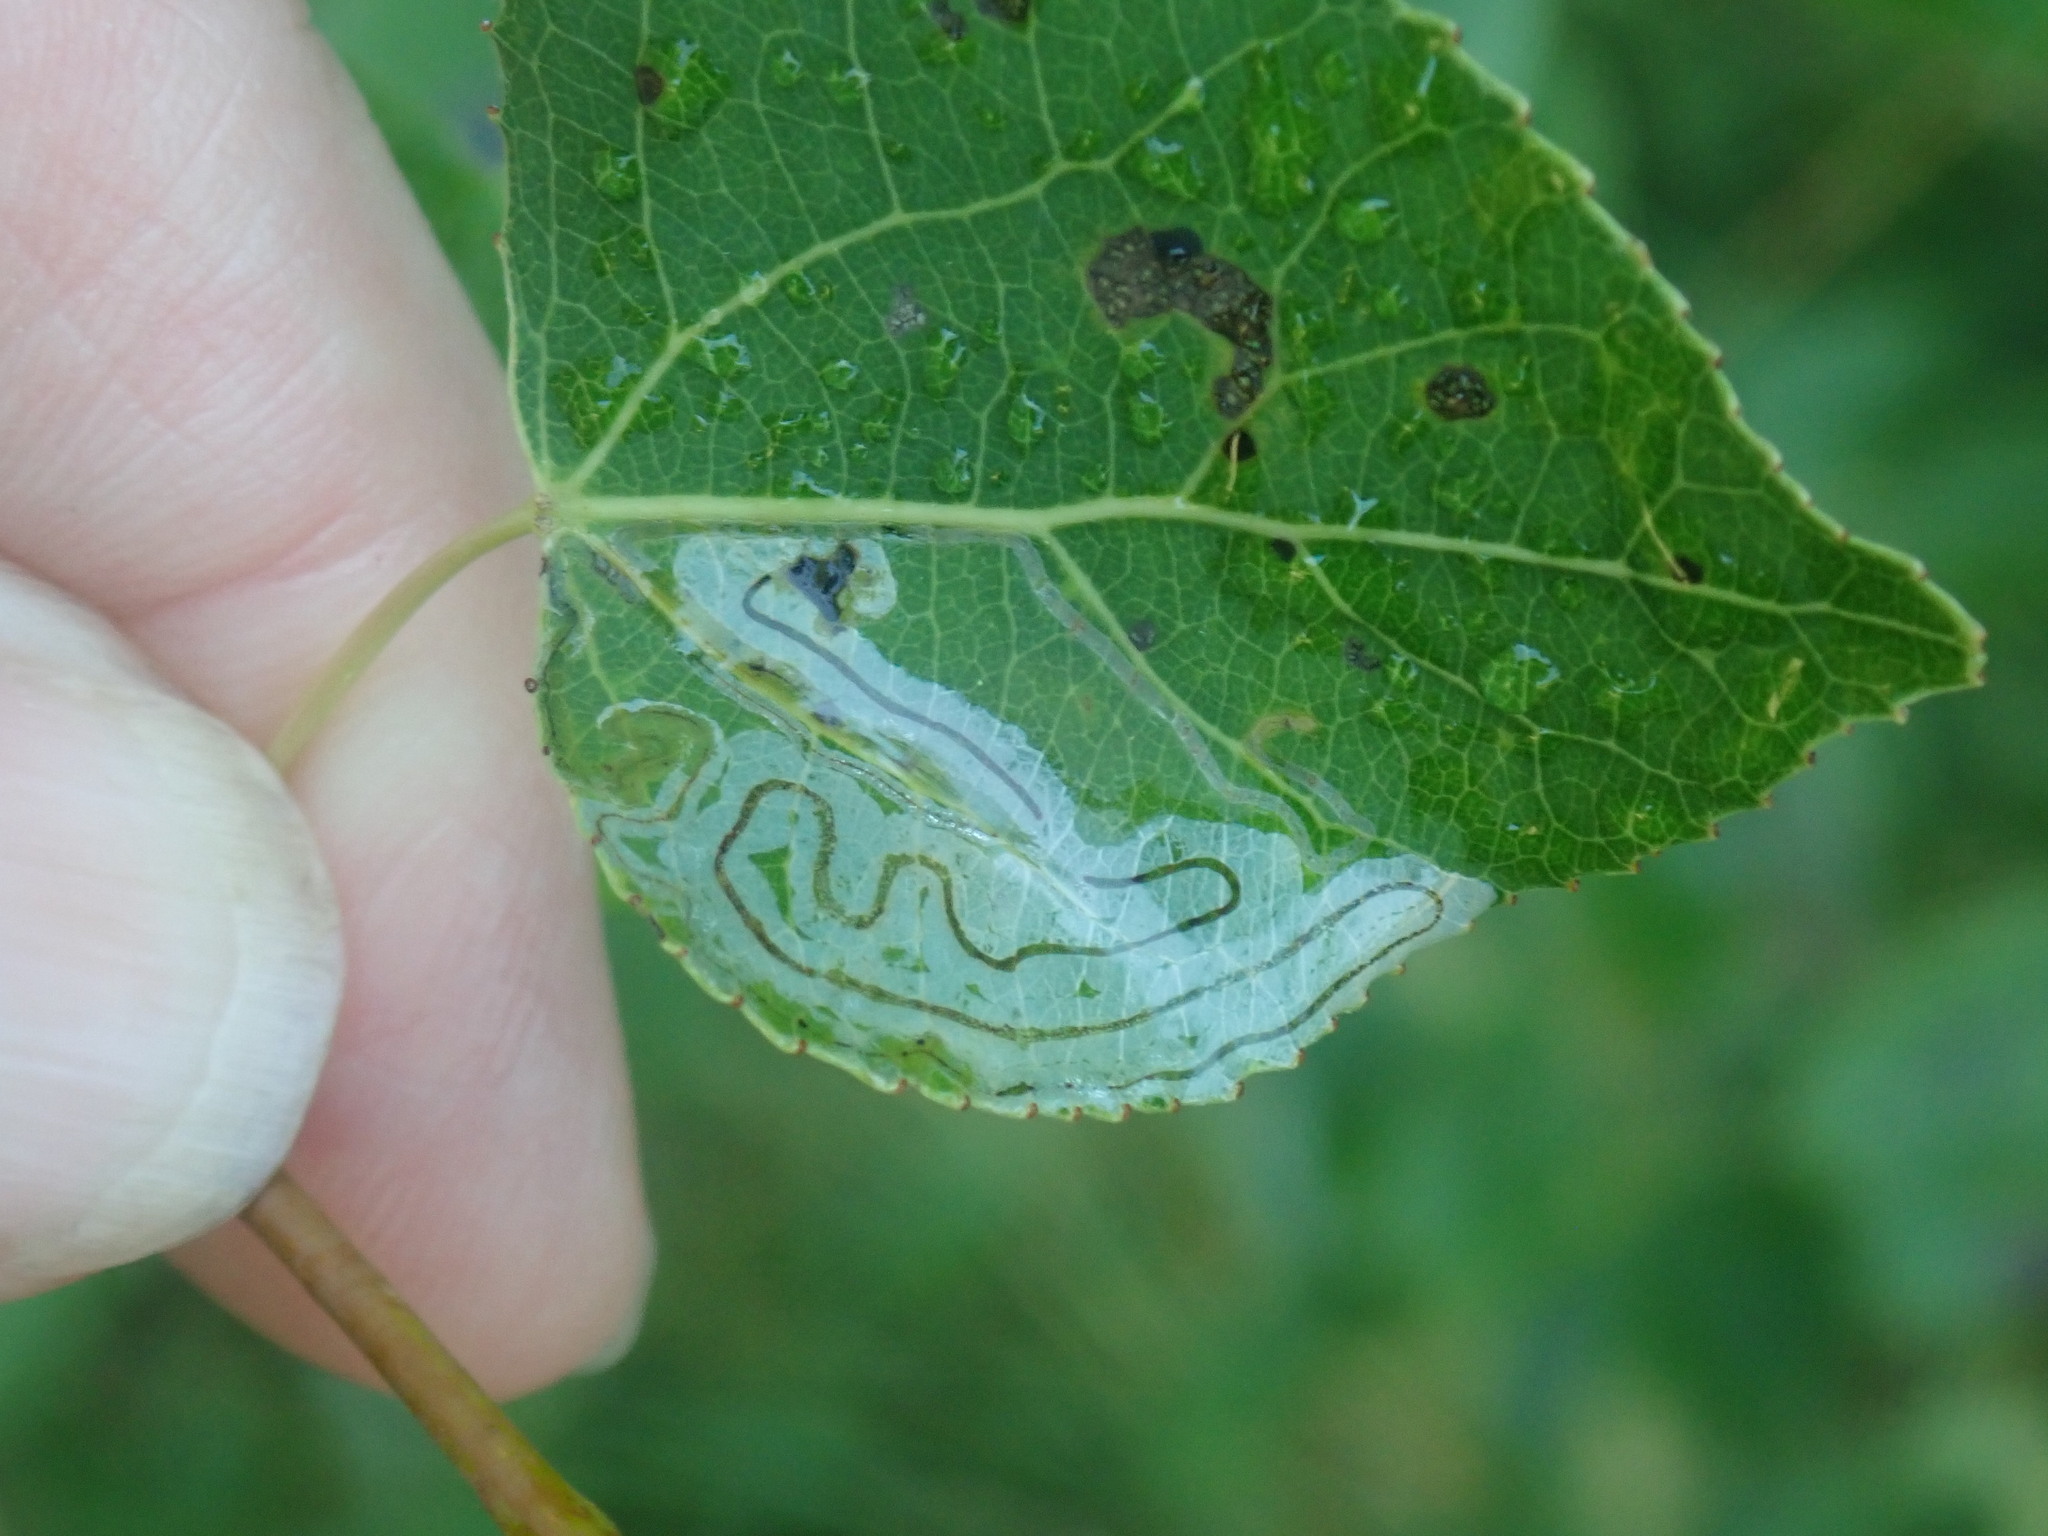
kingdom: Animalia
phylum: Arthropoda
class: Insecta
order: Lepidoptera
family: Gracillariidae
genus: Phyllocnistis
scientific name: Phyllocnistis populiella
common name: Aspen serpentine leafminer moth
